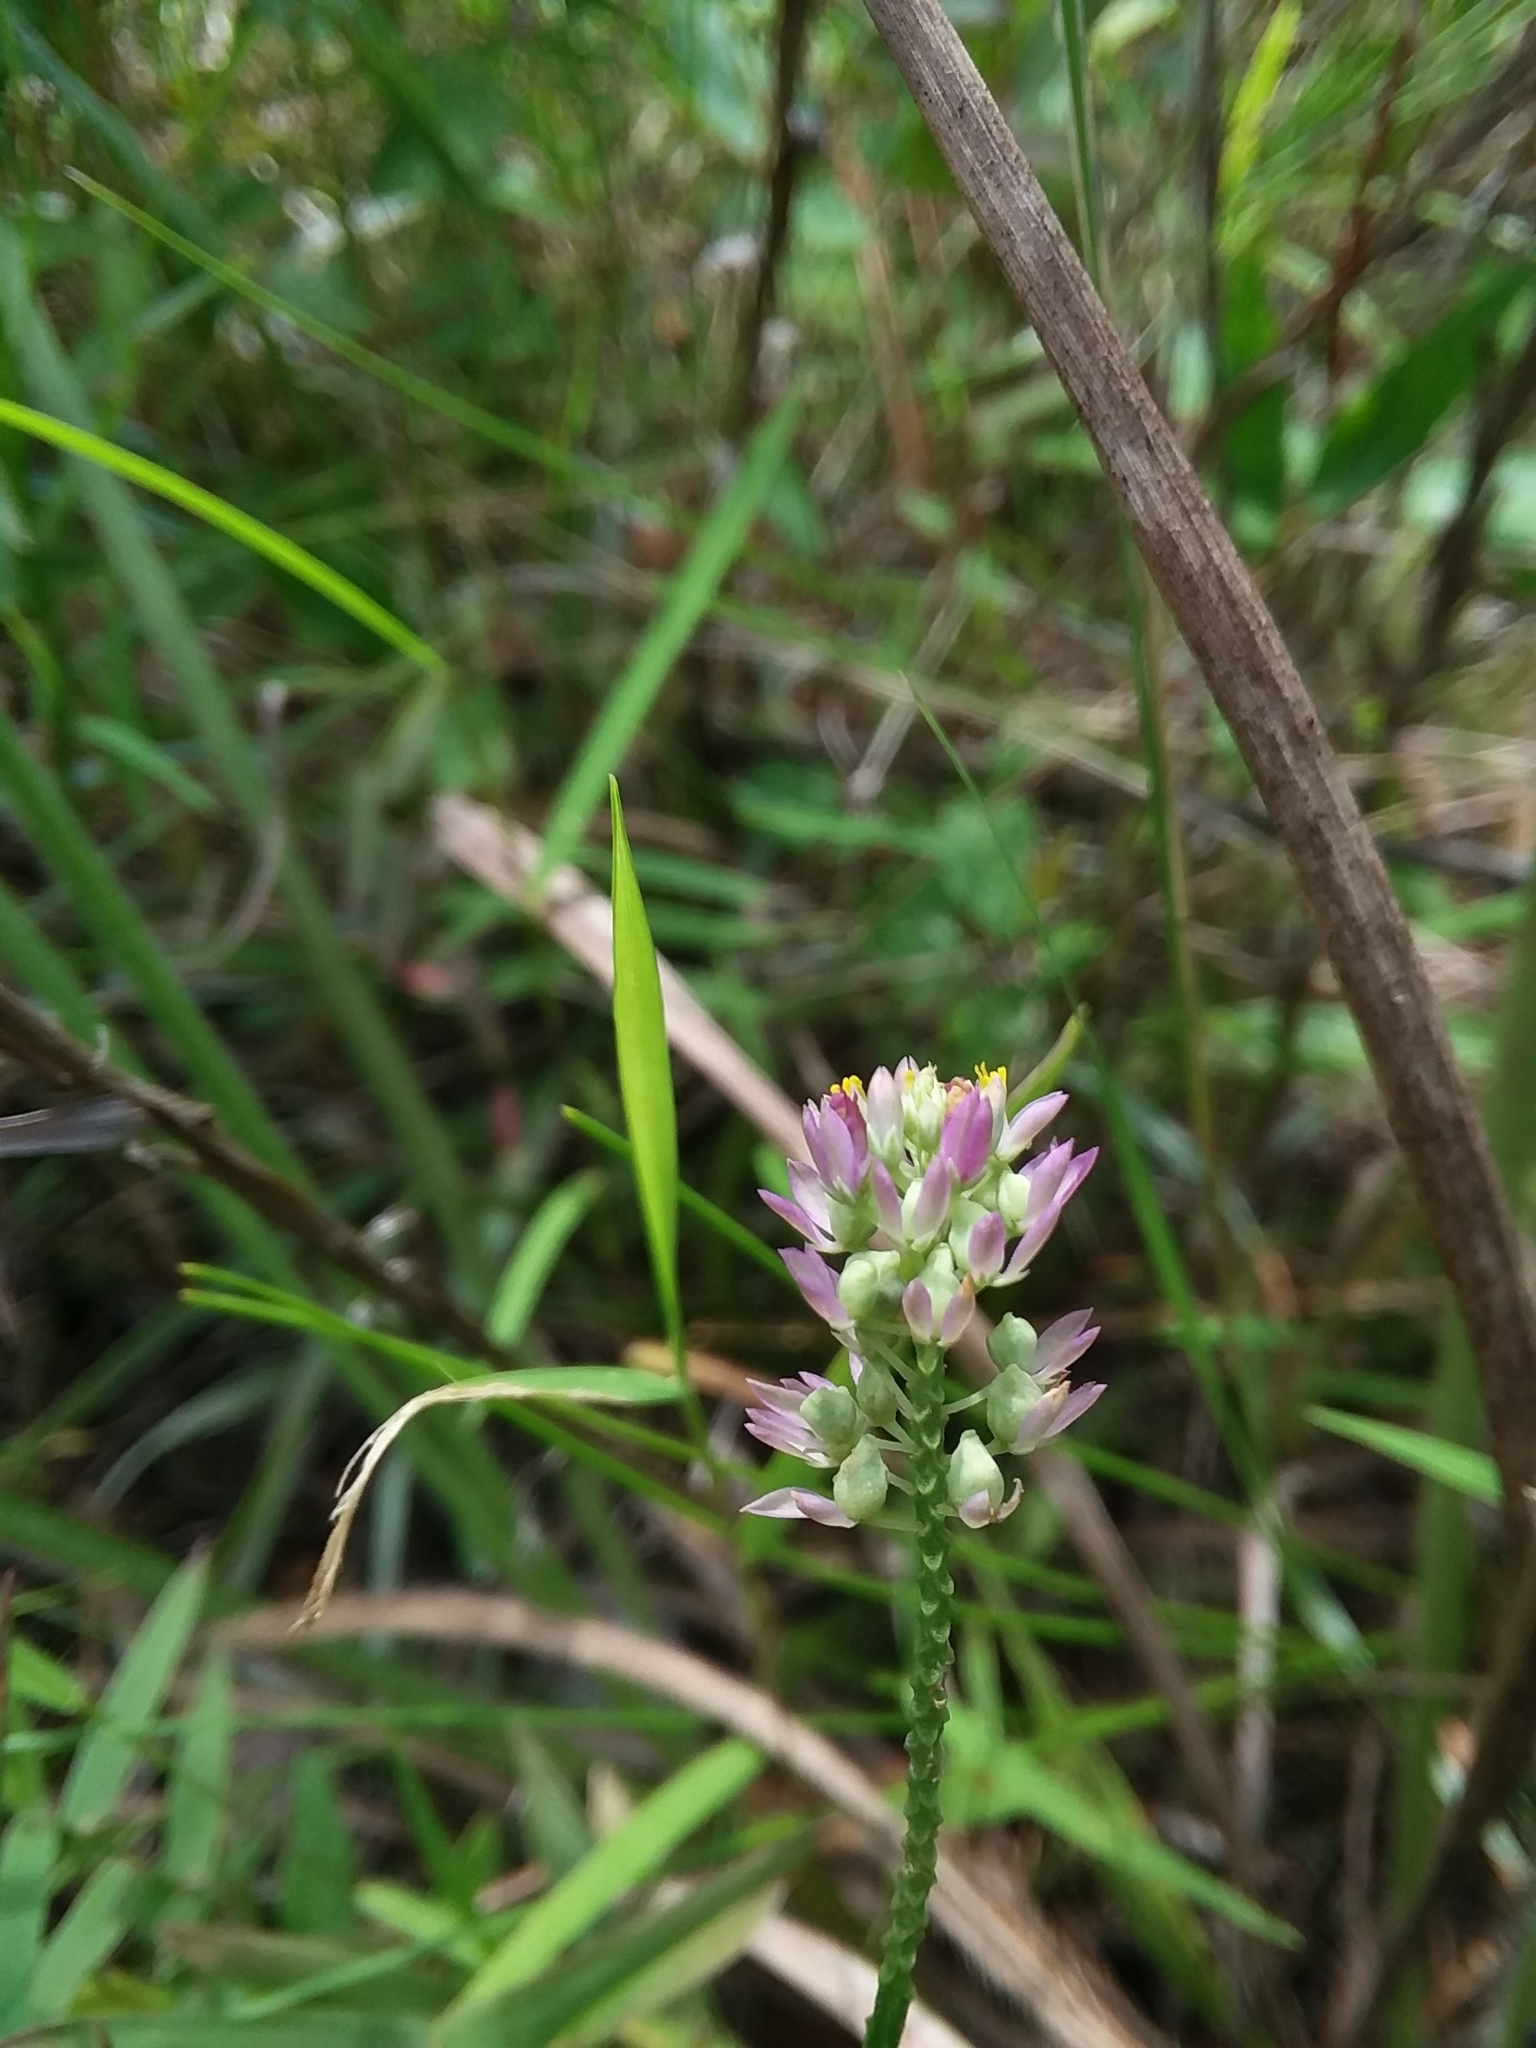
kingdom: Plantae
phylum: Tracheophyta
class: Magnoliopsida
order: Fabales
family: Polygalaceae
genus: Polygala
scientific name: Polygala mariana
